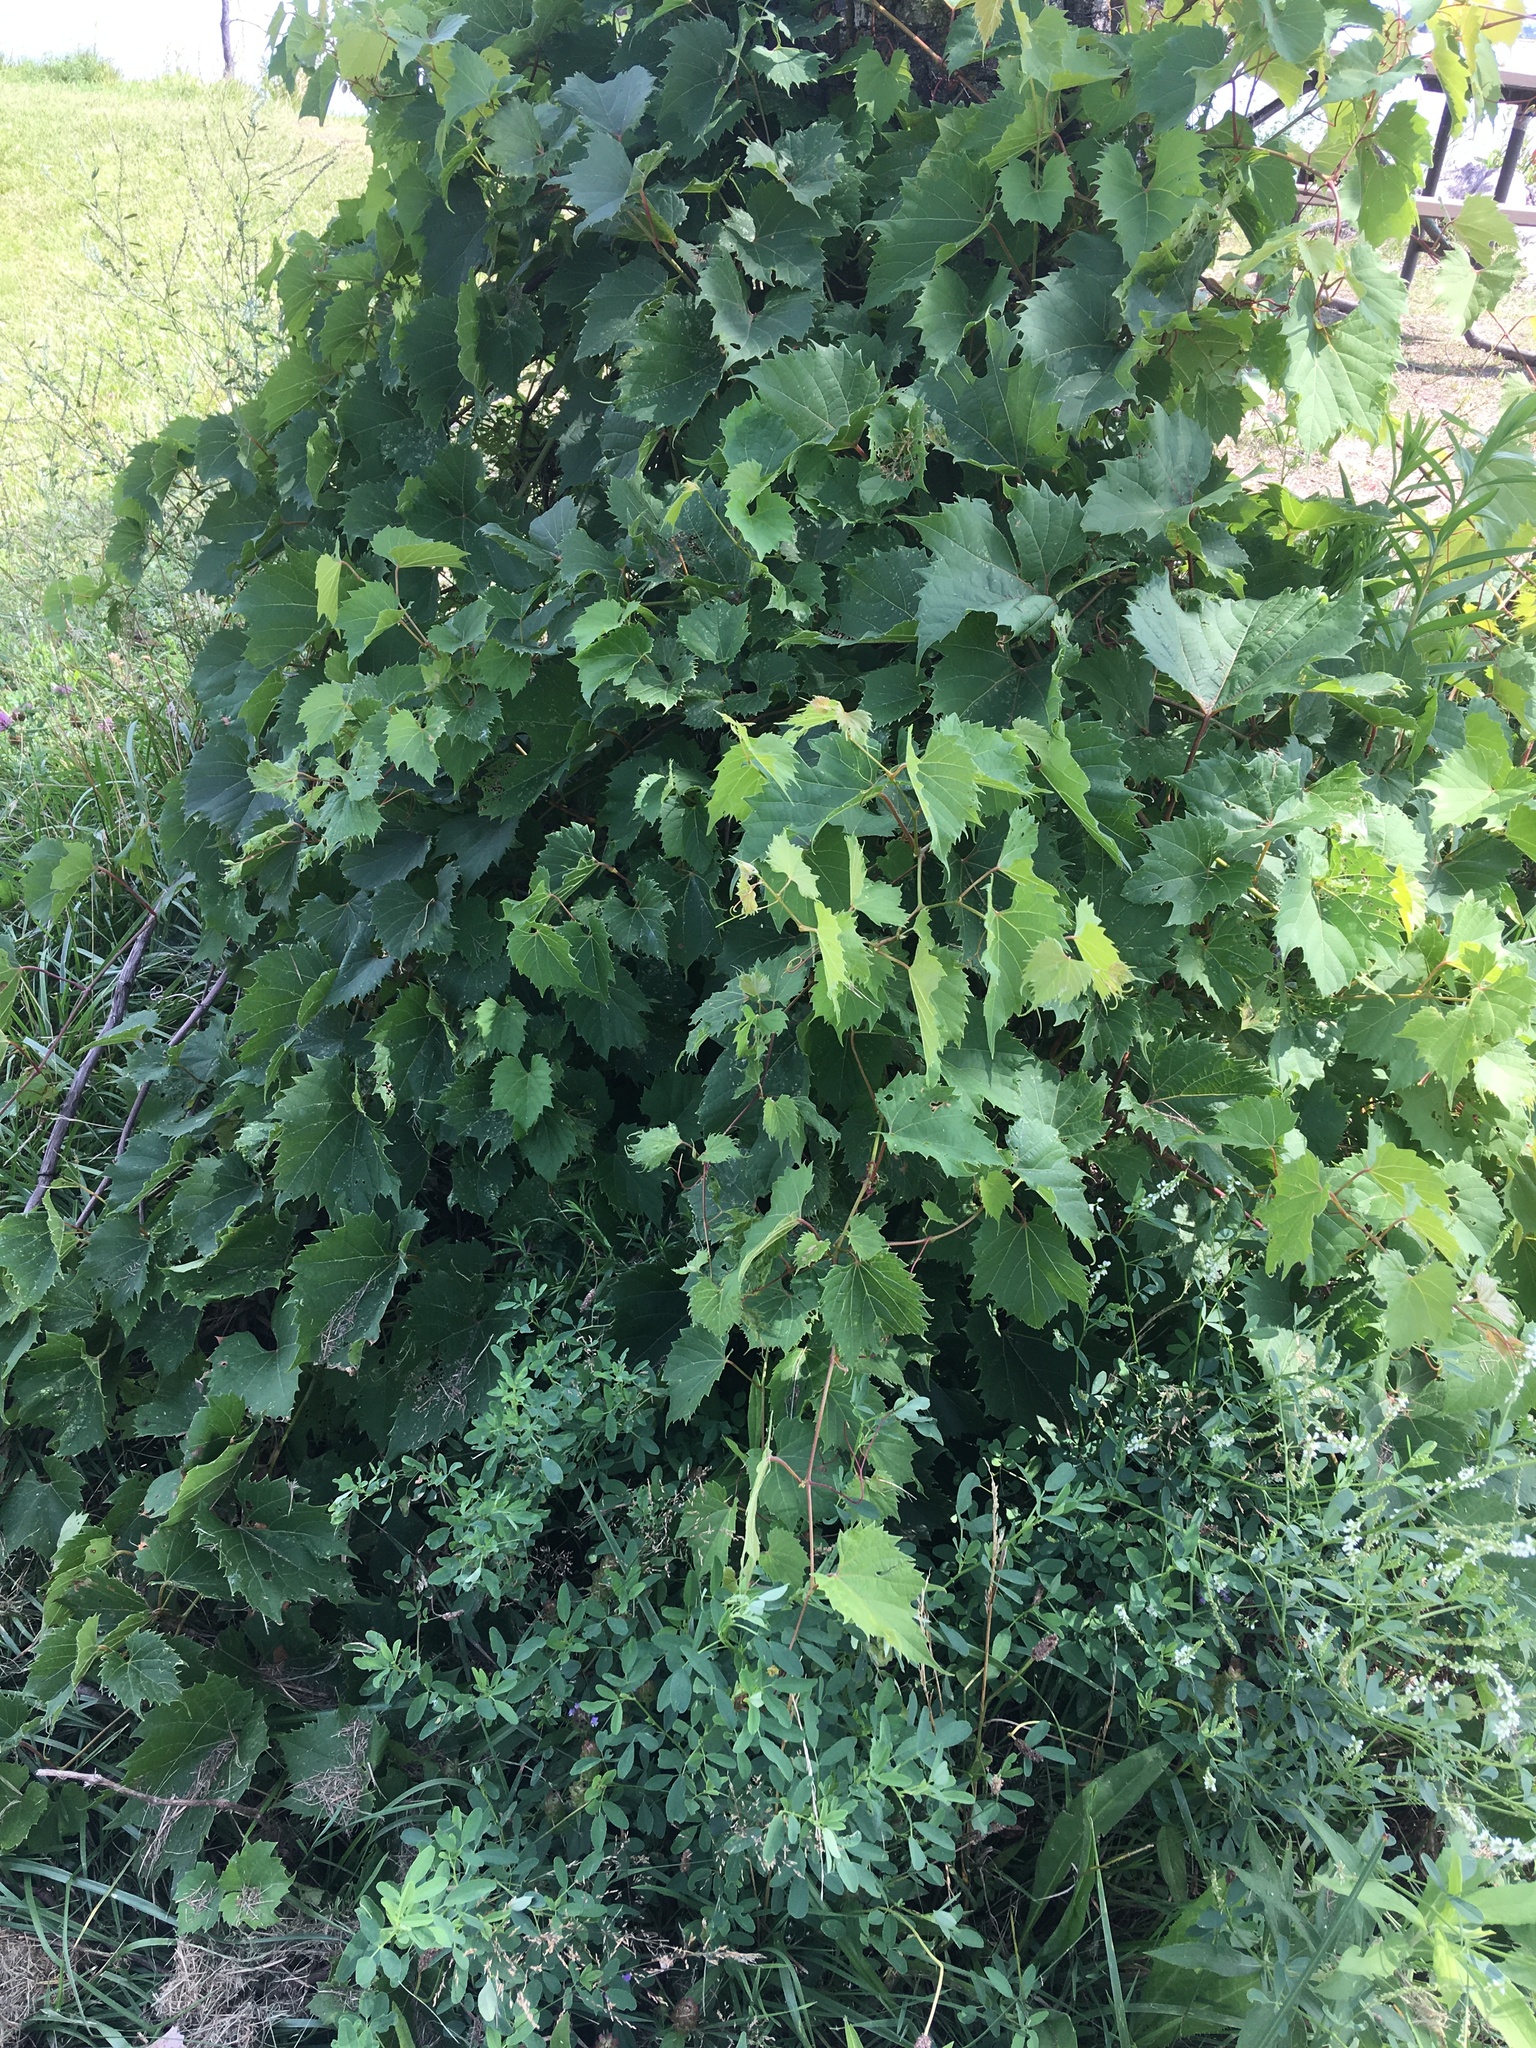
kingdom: Plantae
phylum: Tracheophyta
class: Magnoliopsida
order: Vitales
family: Vitaceae
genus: Vitis
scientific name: Vitis riparia
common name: Frost grape
